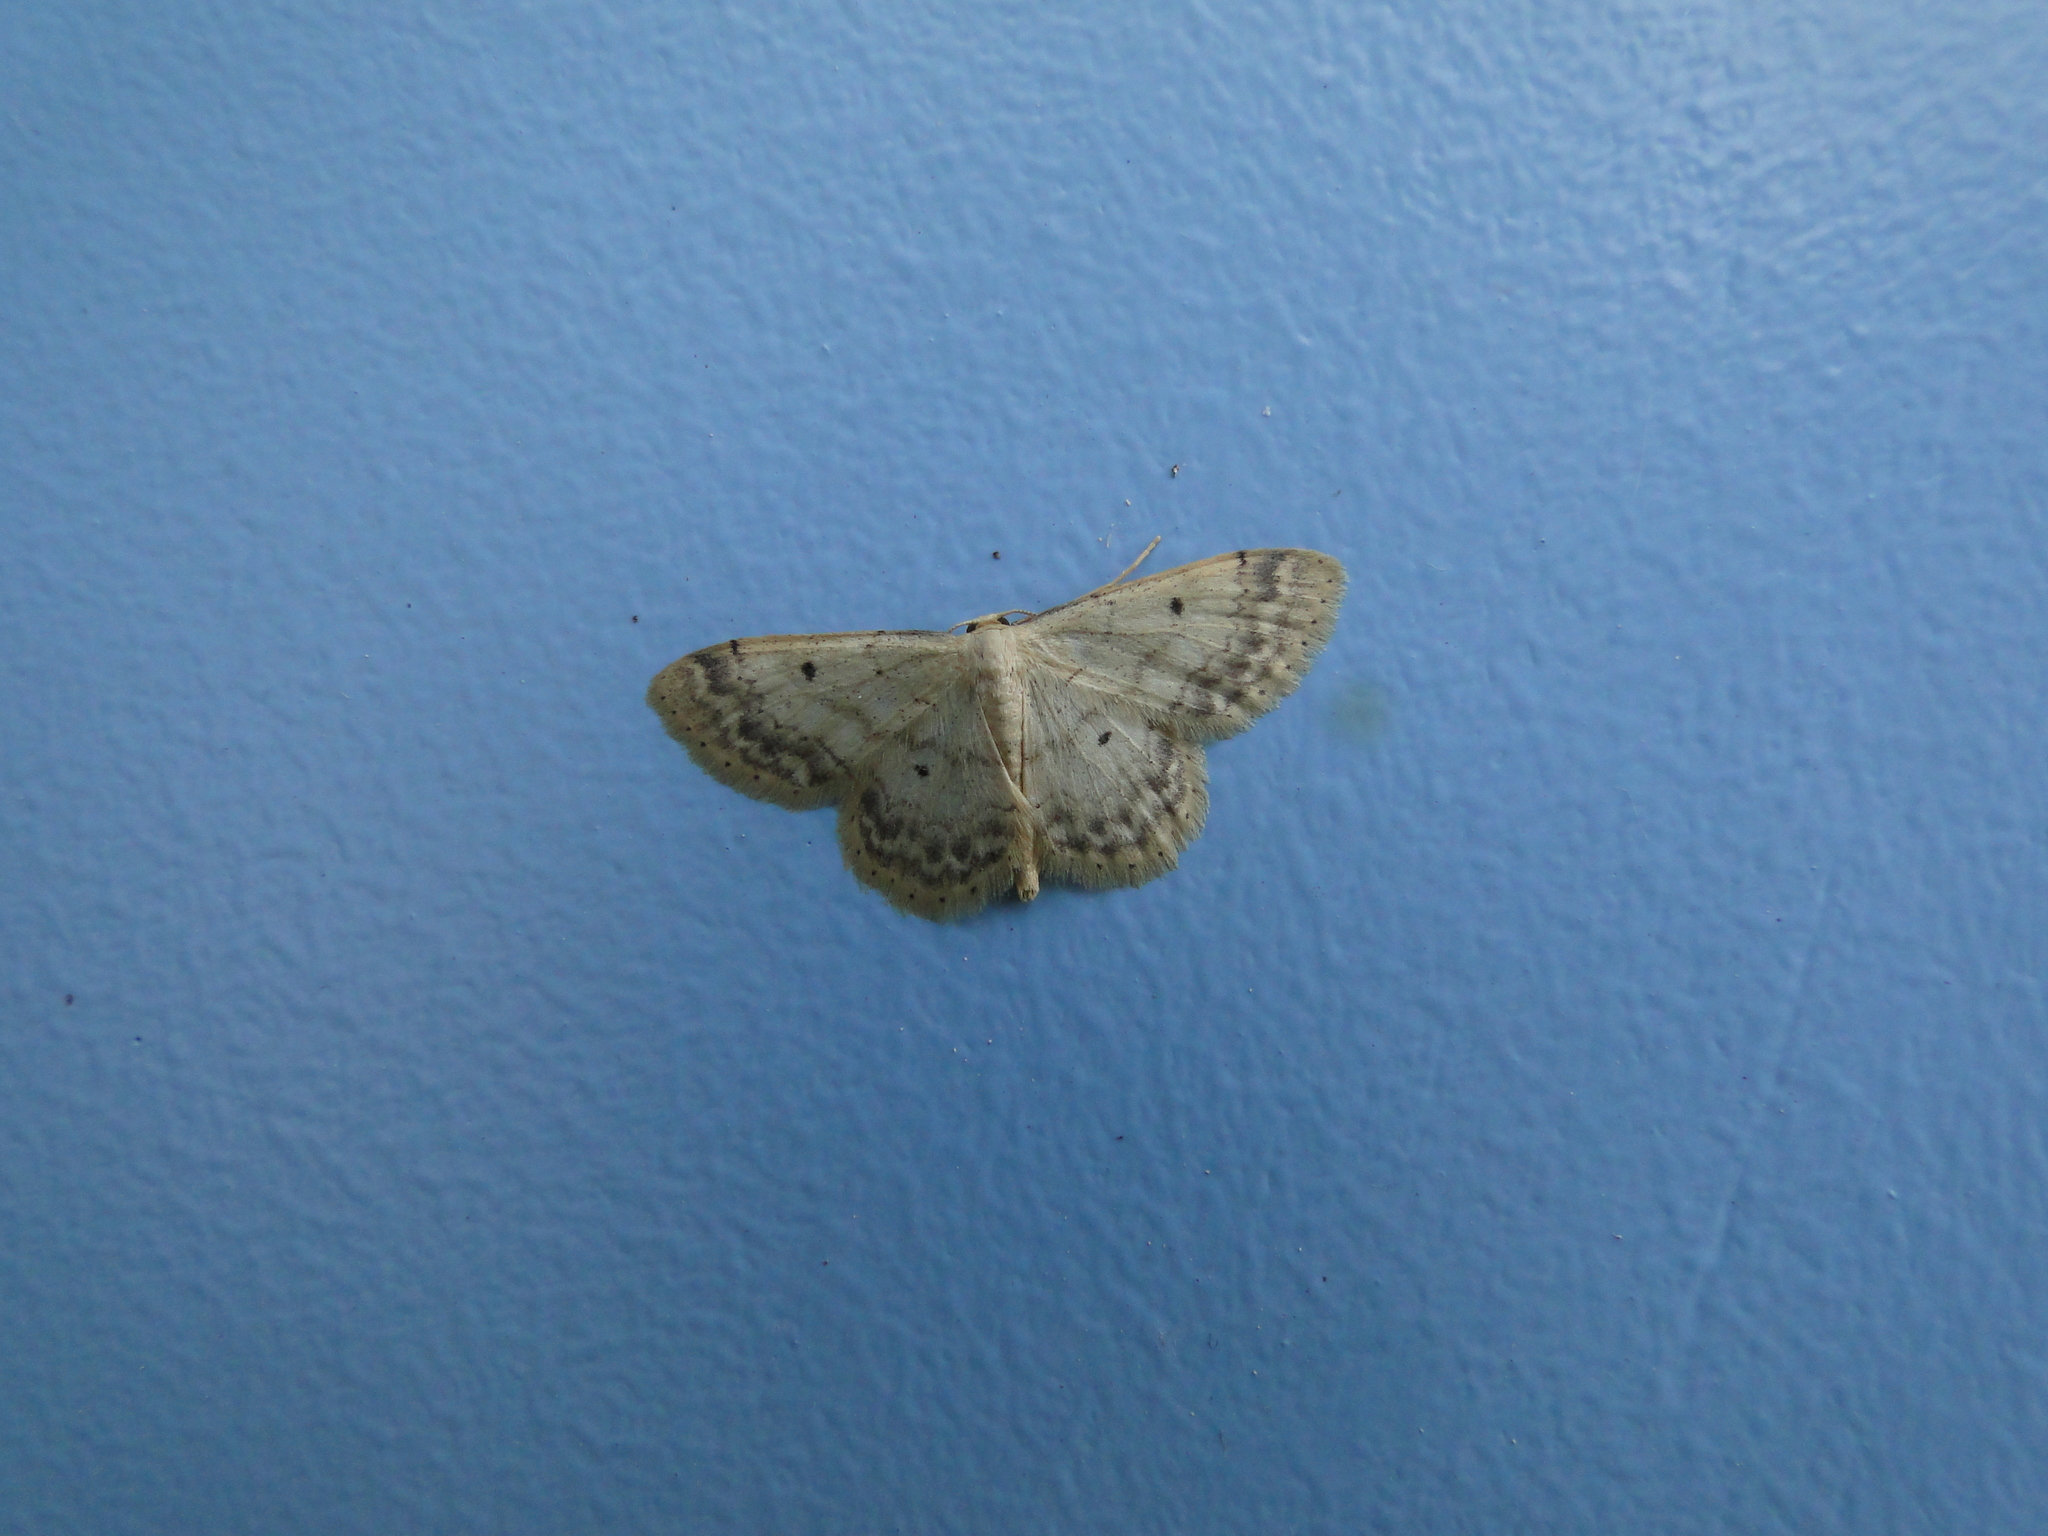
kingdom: Animalia
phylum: Arthropoda
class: Insecta
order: Lepidoptera
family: Geometridae
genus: Idaea
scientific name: Idaea biselata
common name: Small fan-footed wave
